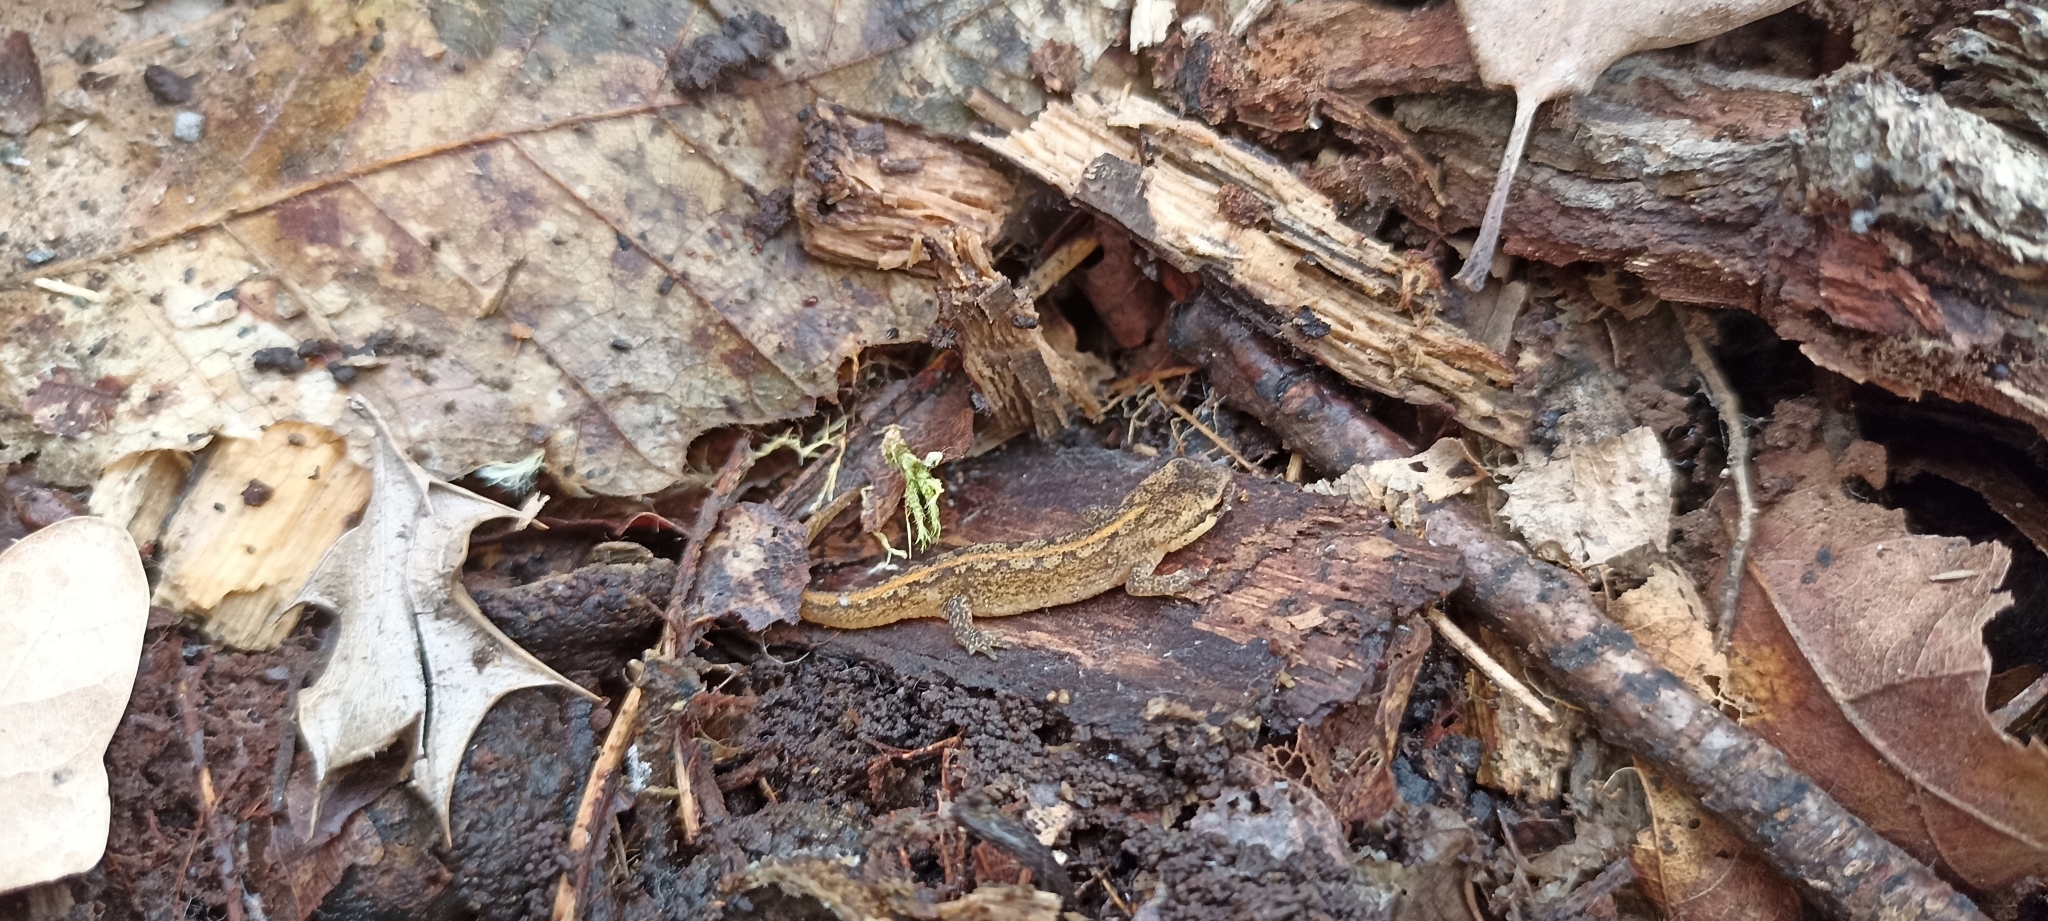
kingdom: Animalia
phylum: Chordata
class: Amphibia
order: Caudata
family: Salamandridae
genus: Lissotriton
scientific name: Lissotriton helveticus
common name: Palmate newt
